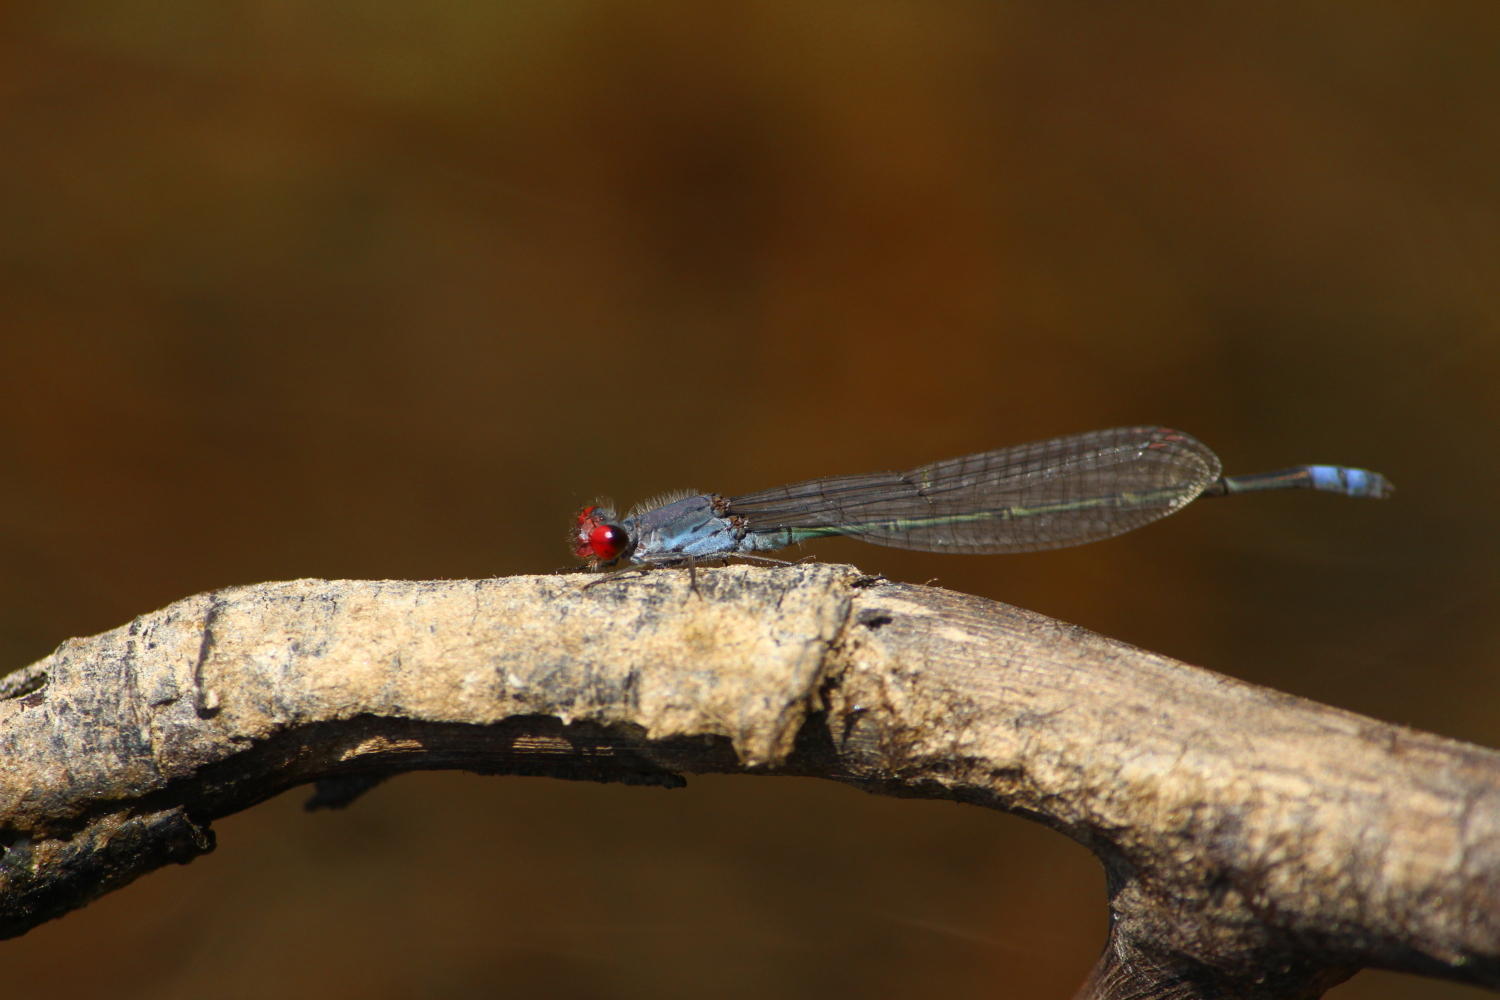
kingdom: Animalia
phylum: Arthropoda
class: Insecta
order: Odonata
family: Coenagrionidae
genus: Pseudagrion
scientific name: Pseudagrion sublacteum
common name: Cherry-eye sprite
